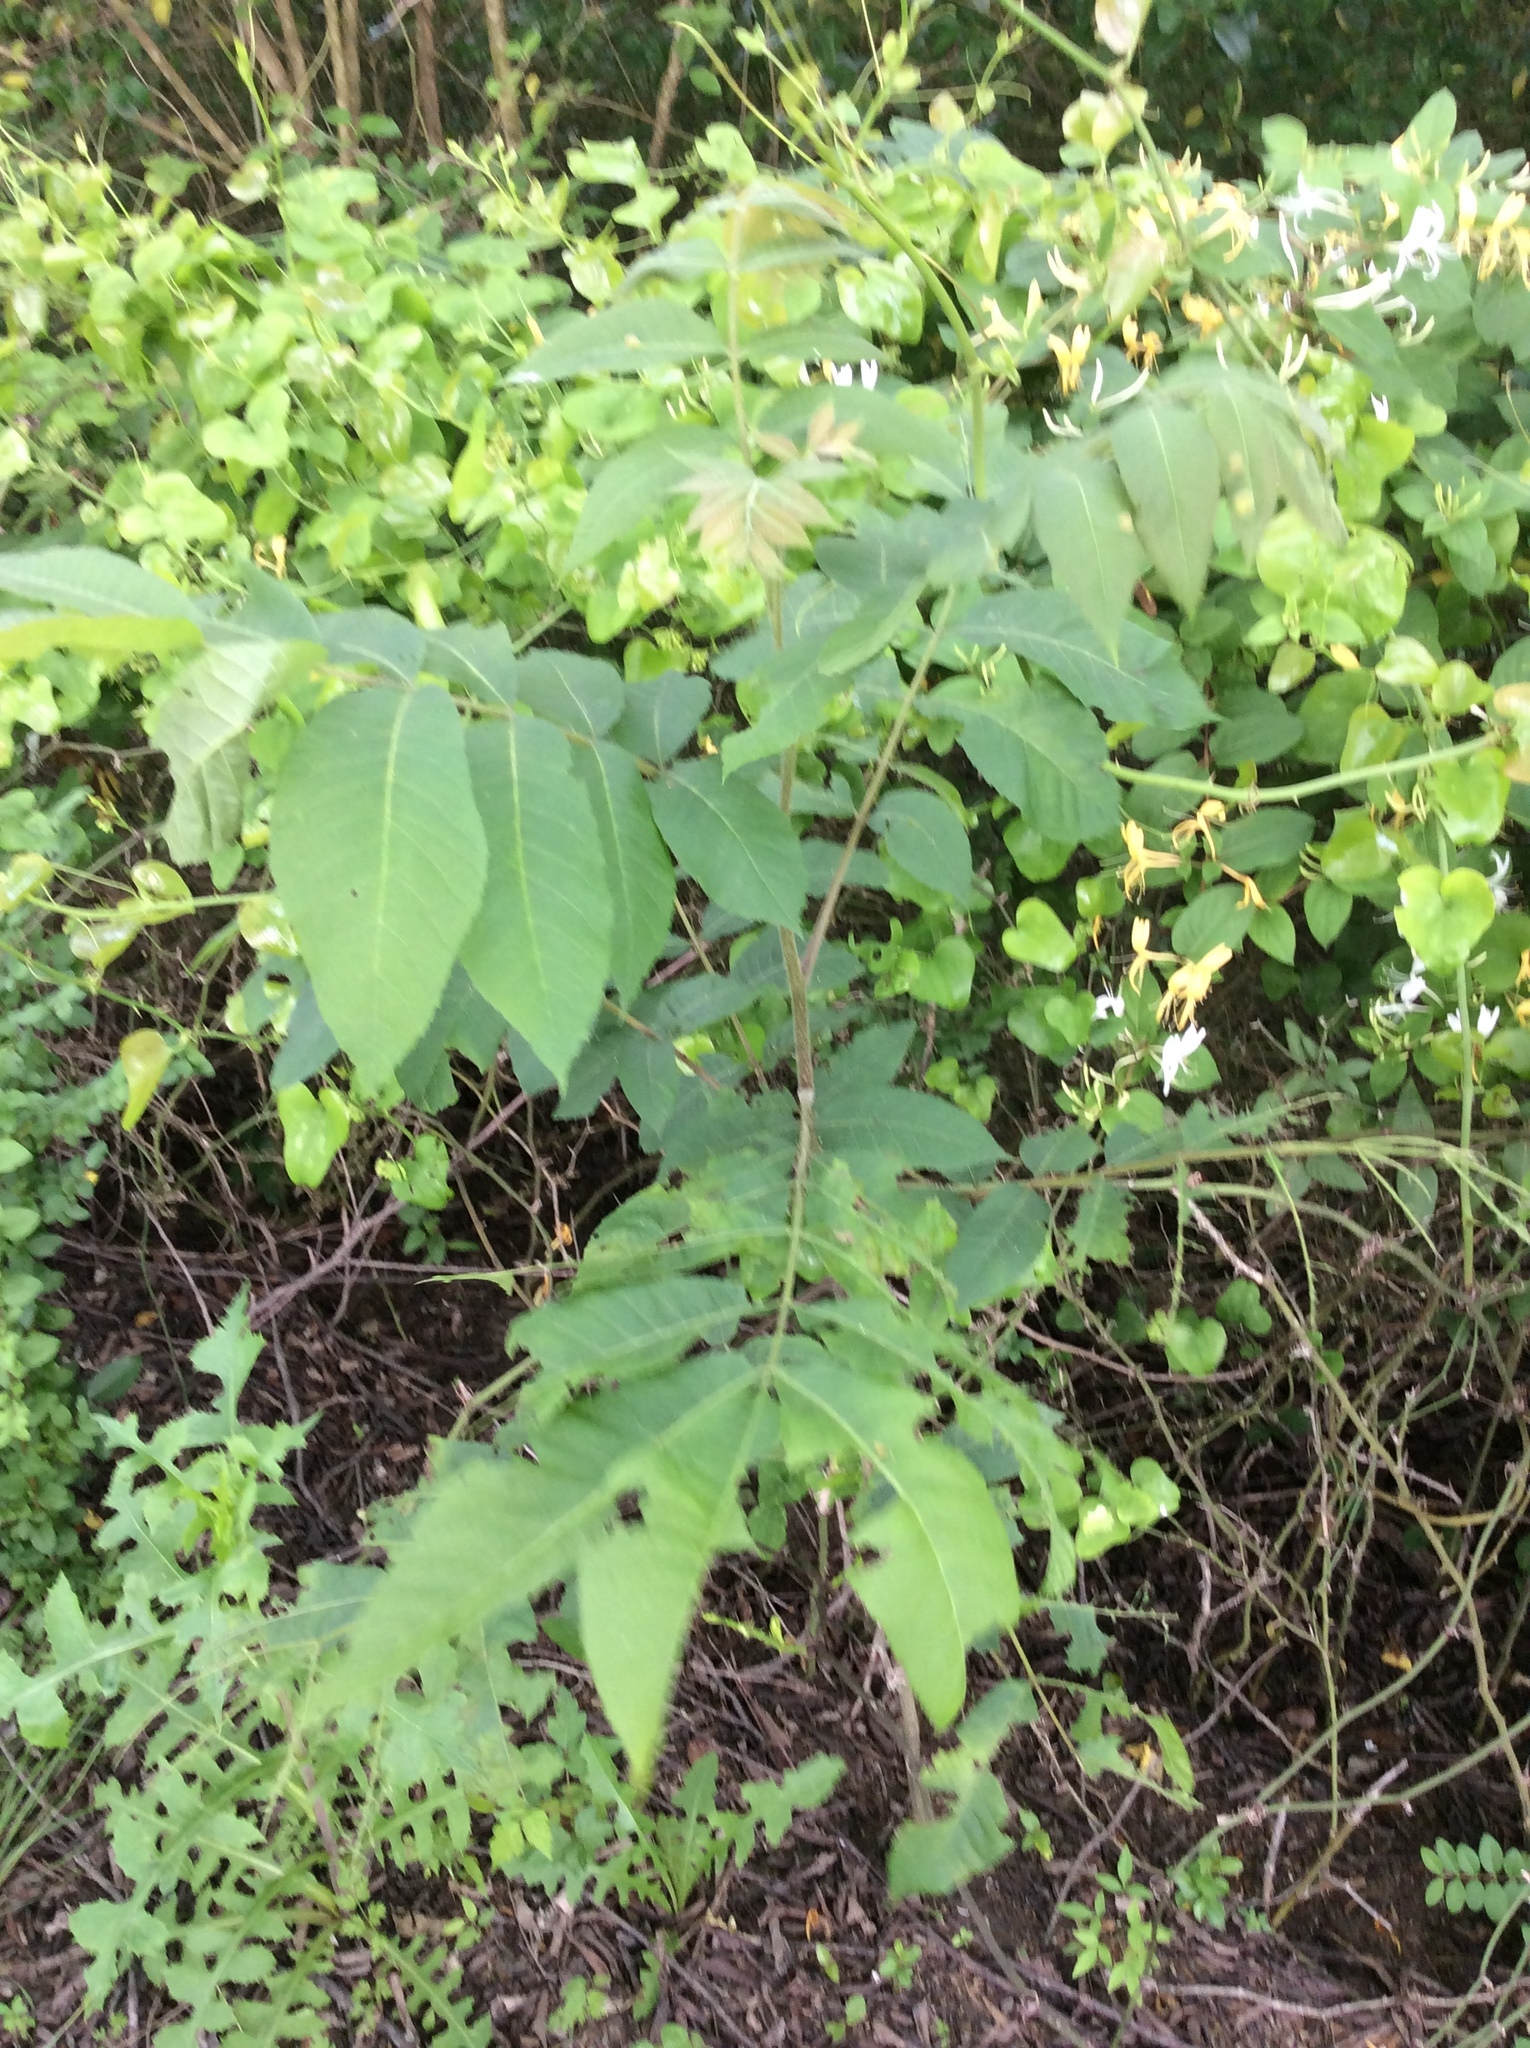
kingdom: Plantae
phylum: Tracheophyta
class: Magnoliopsida
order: Fagales
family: Juglandaceae
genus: Carya
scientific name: Carya illinoinensis
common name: Pecan
